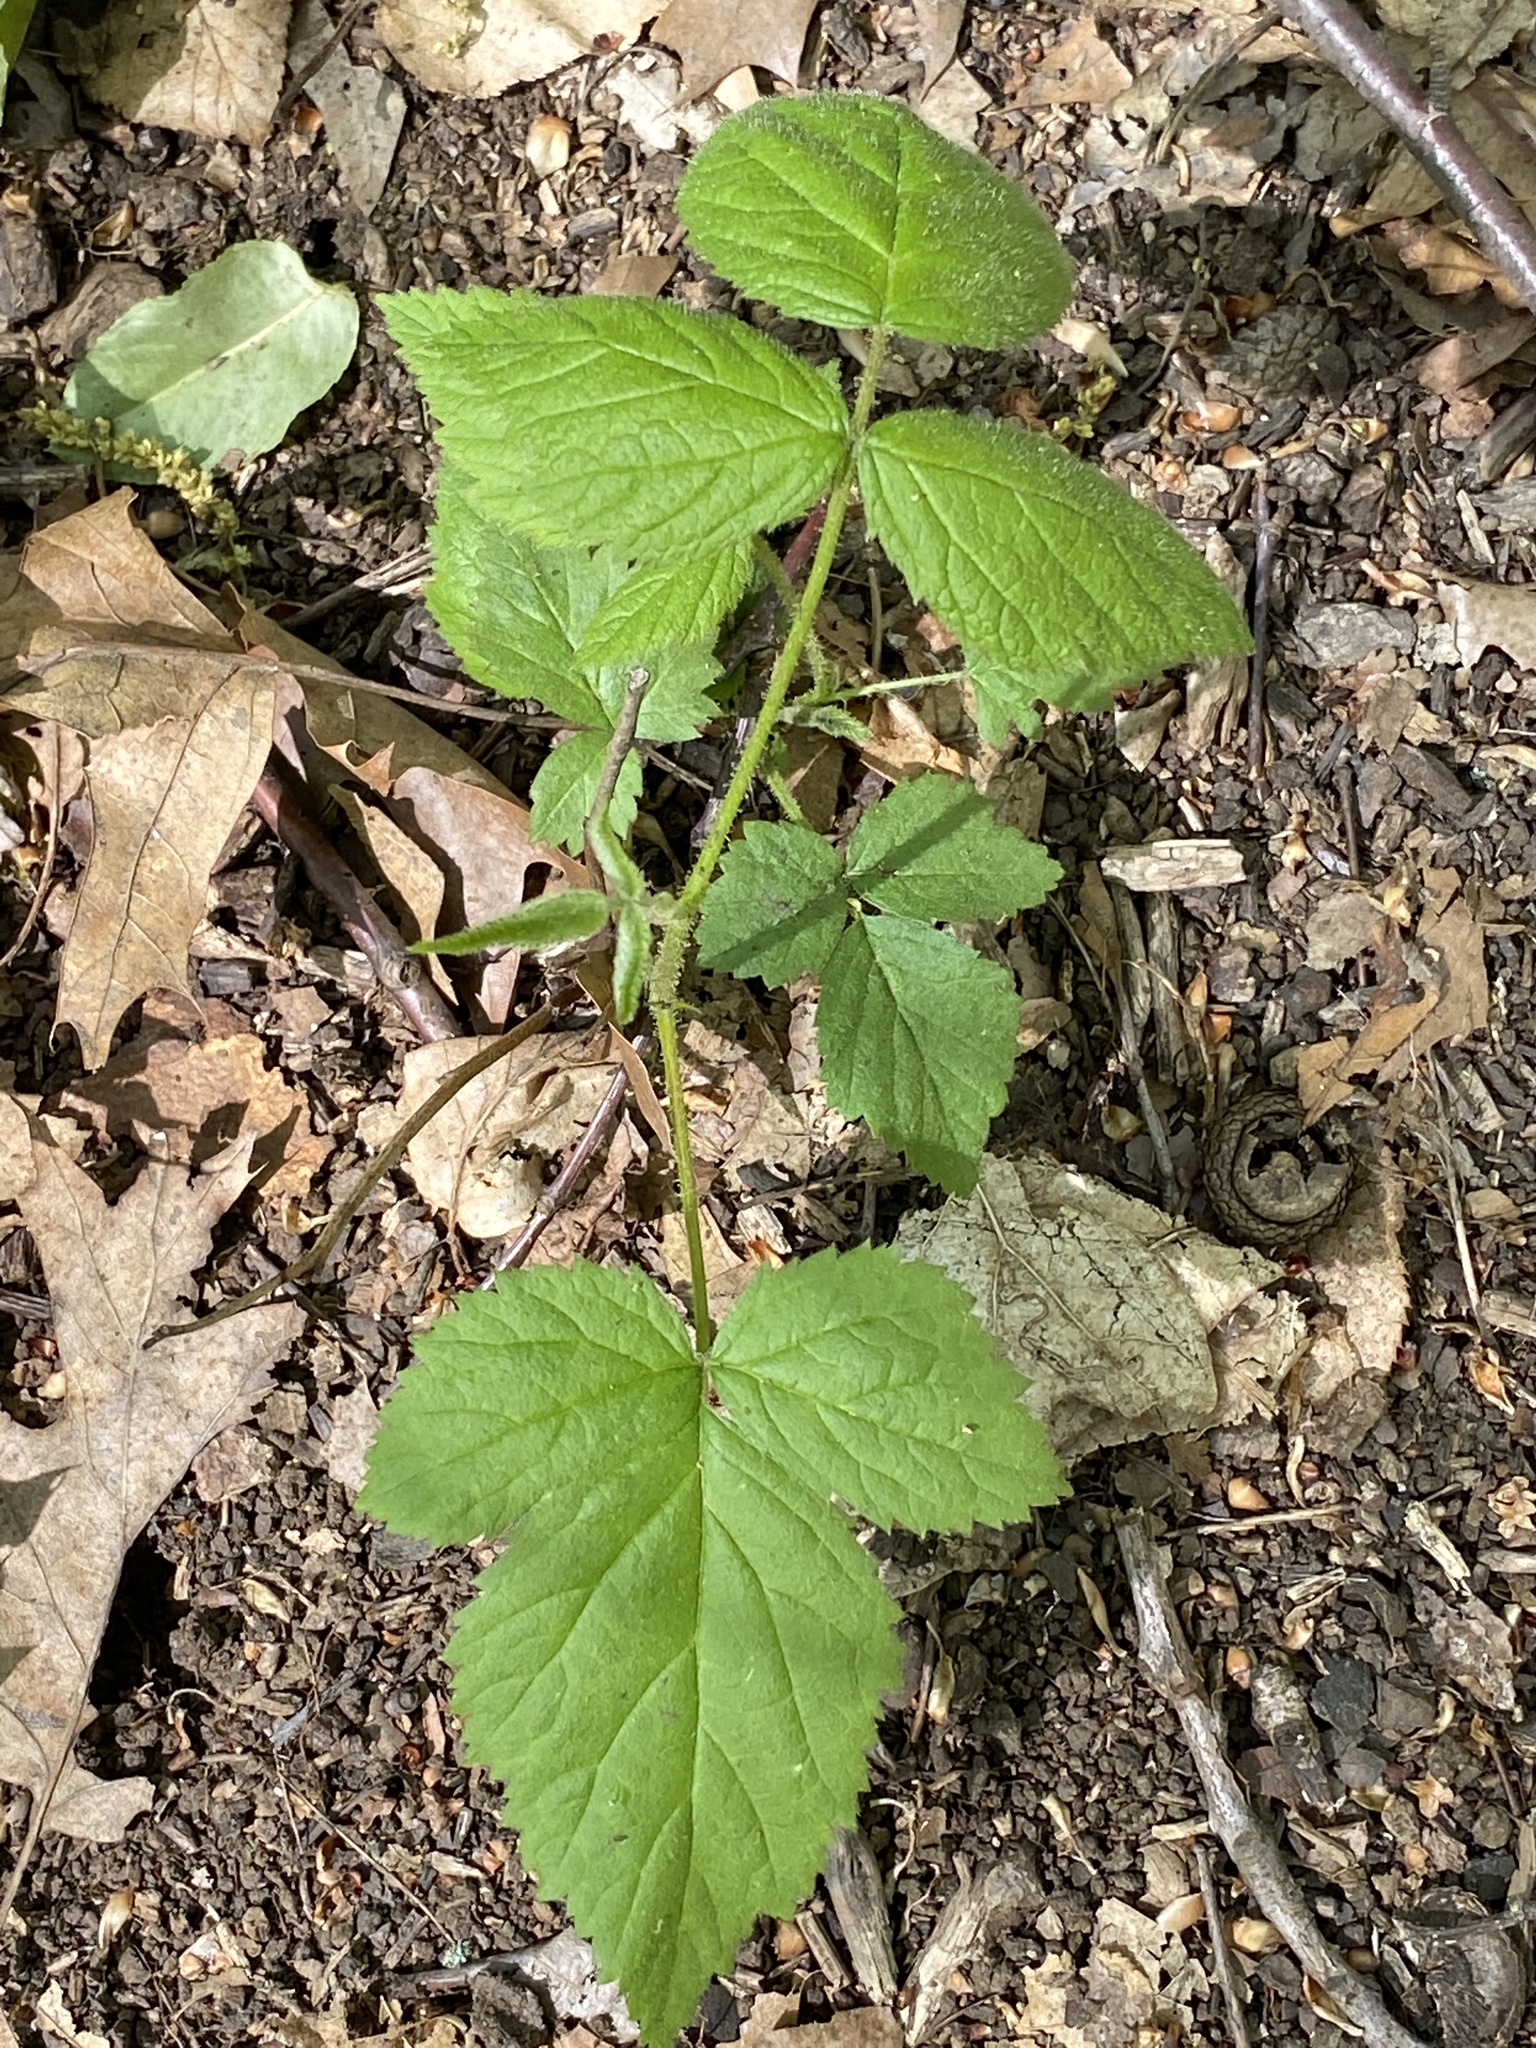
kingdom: Plantae
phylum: Tracheophyta
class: Magnoliopsida
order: Rosales
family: Rosaceae
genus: Rubus
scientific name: Rubus phoenicolasius
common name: Japanese wineberry
